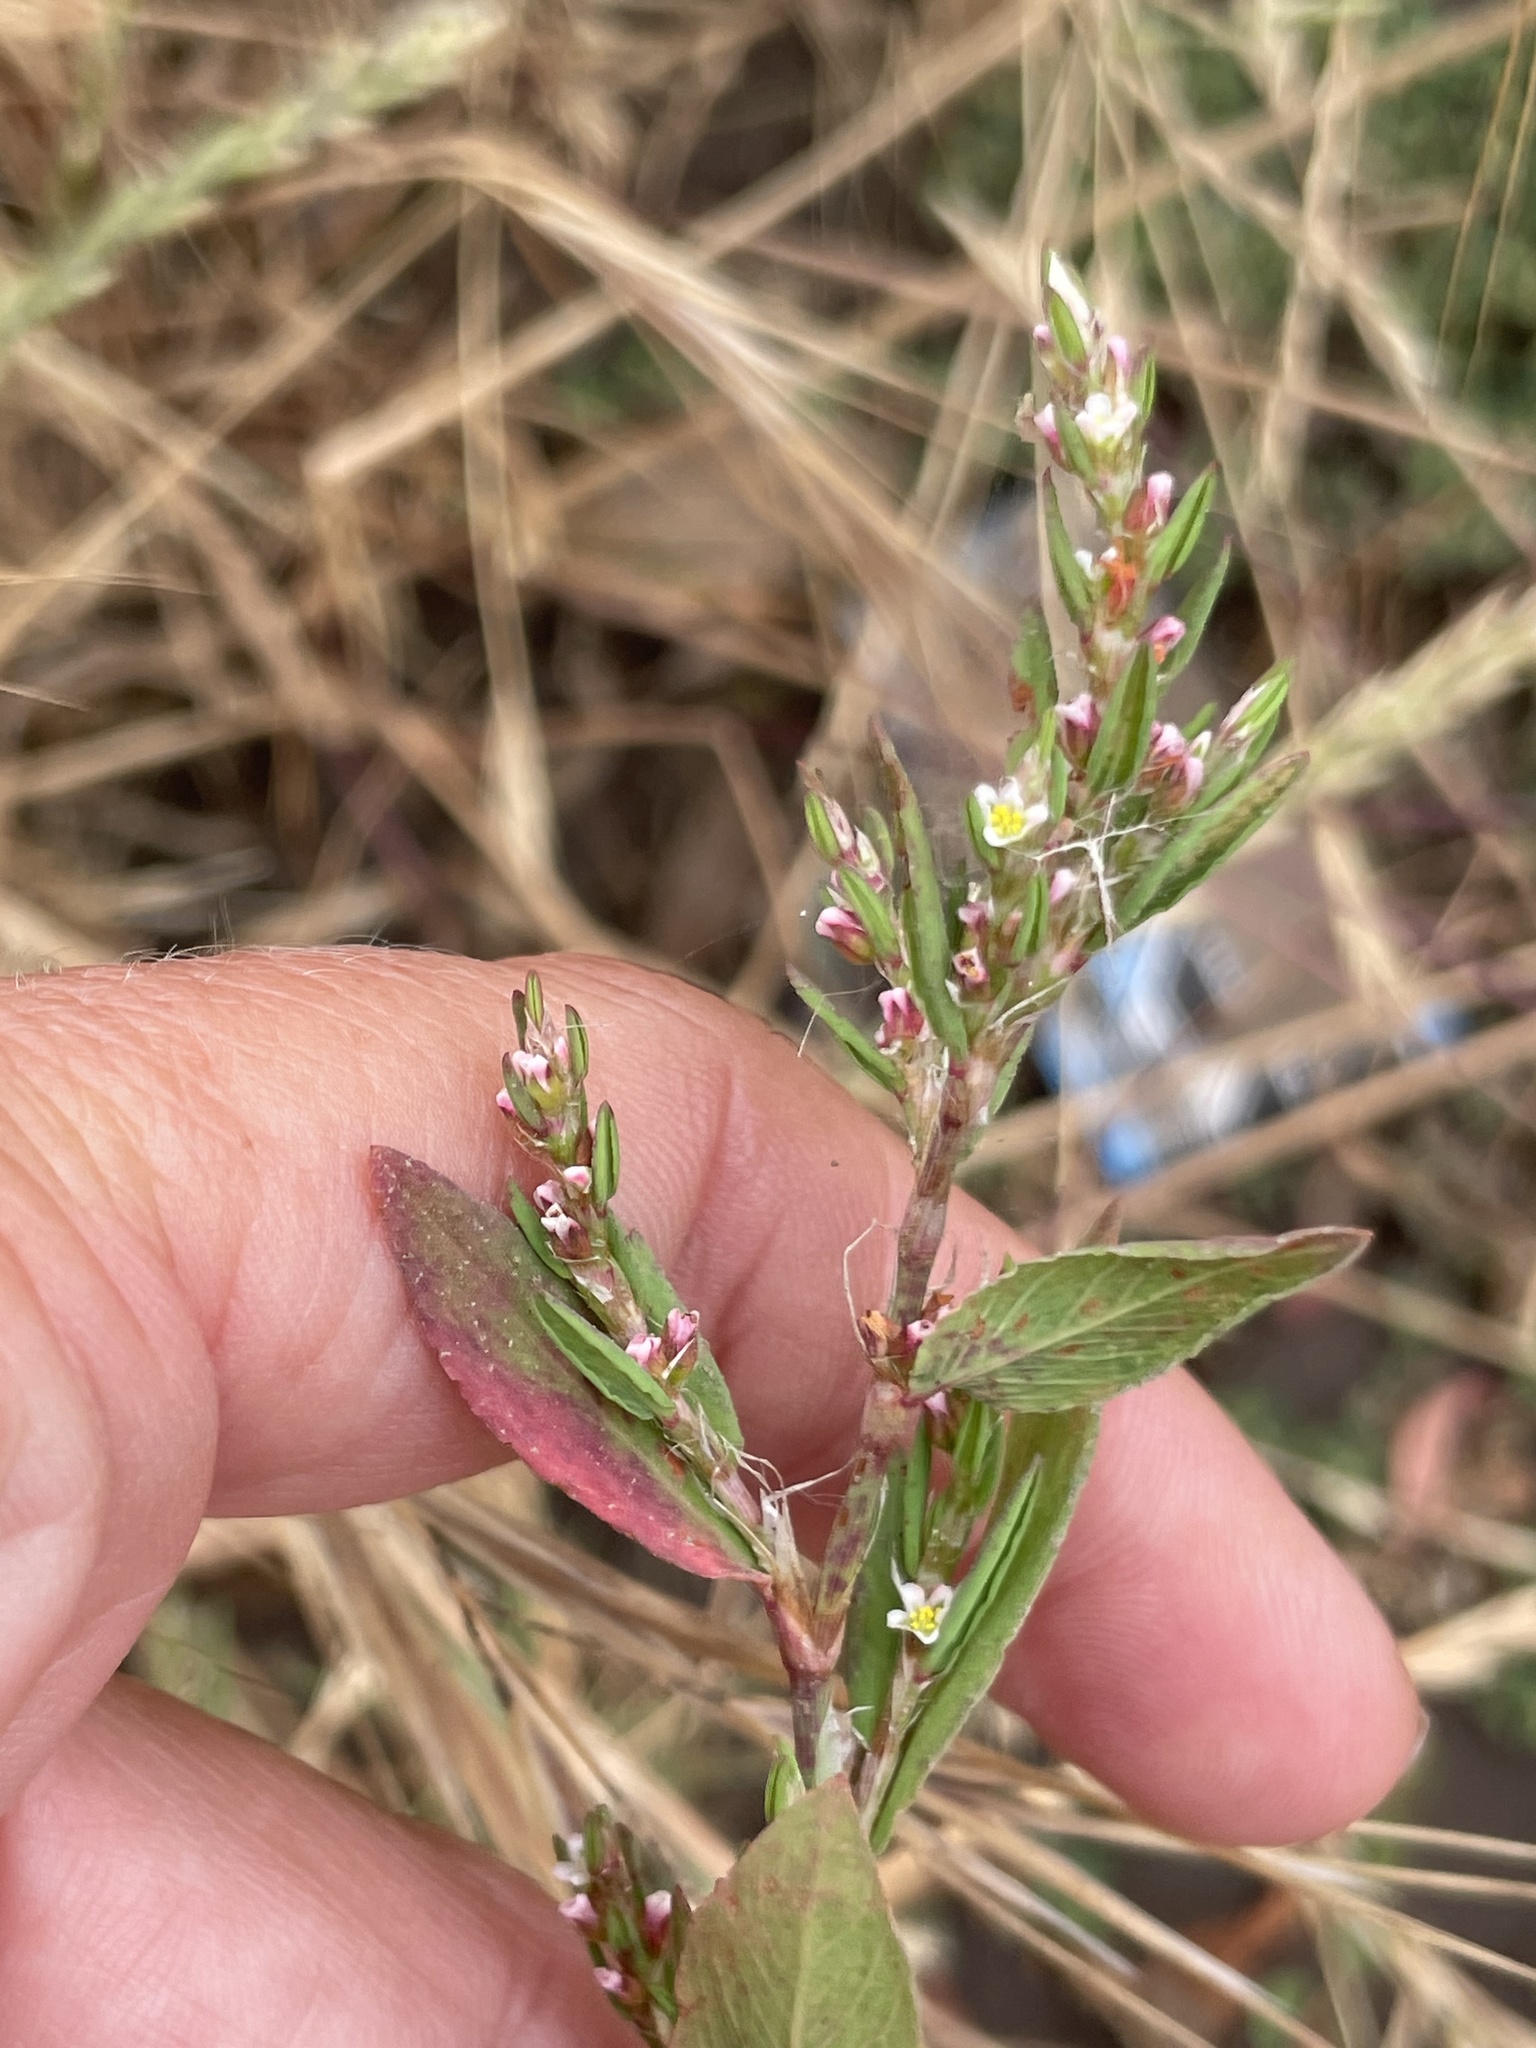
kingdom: Plantae
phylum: Tracheophyta
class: Magnoliopsida
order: Caryophyllales
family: Polygonaceae
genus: Polygonum
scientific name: Polygonum aviculare
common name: Prostrate knotweed
